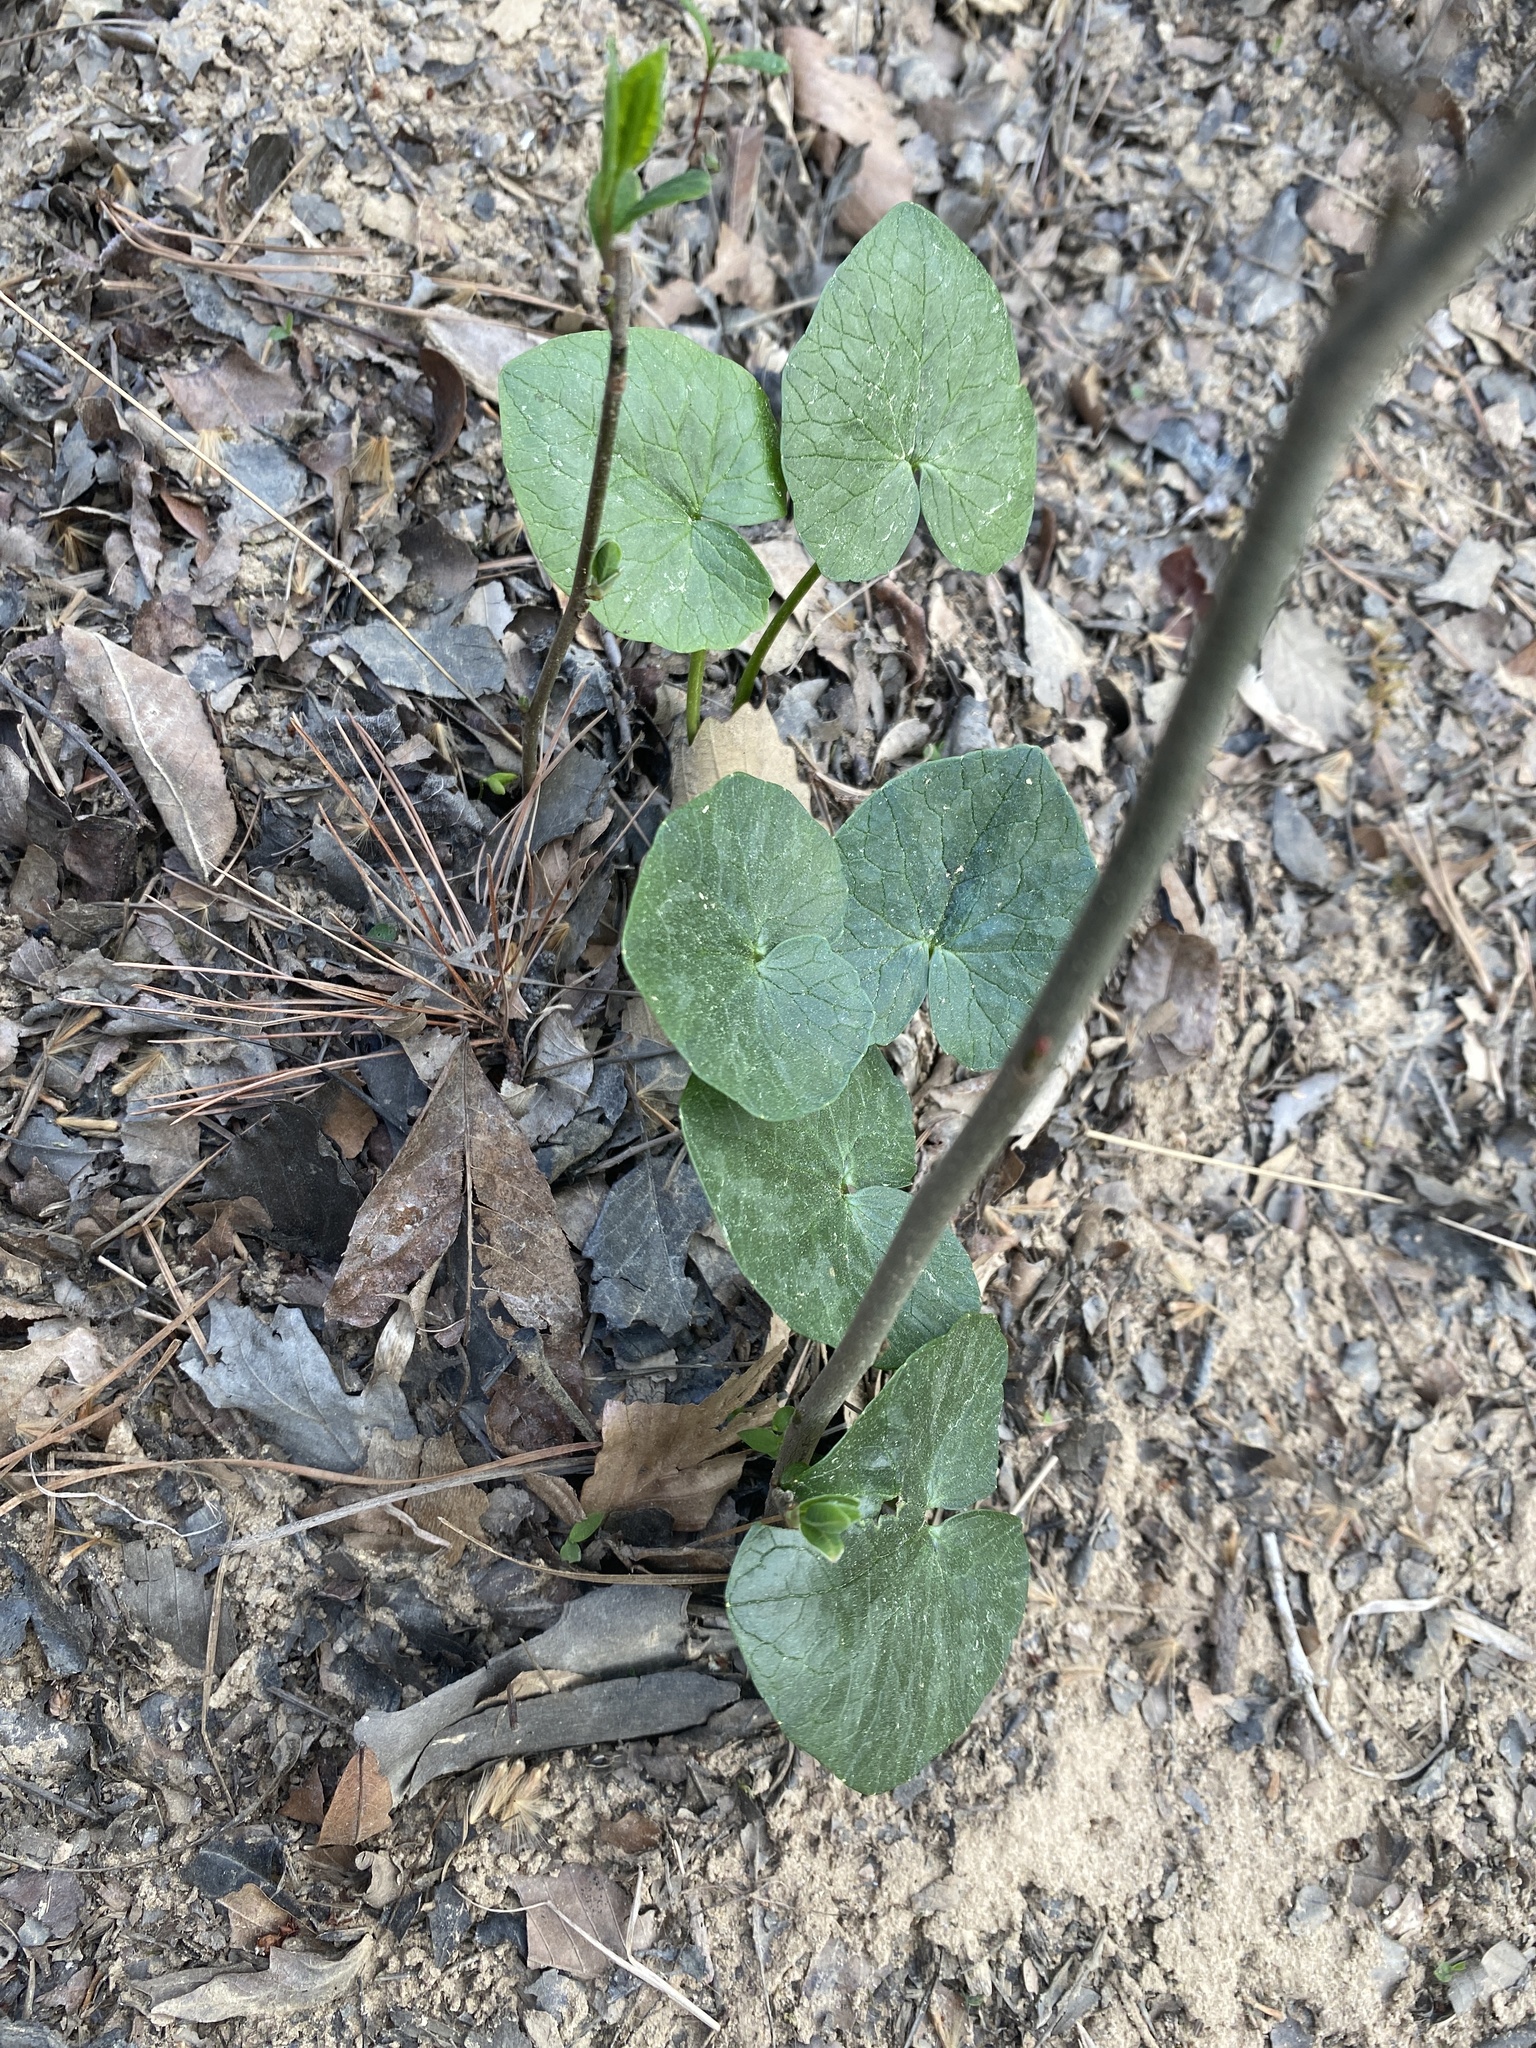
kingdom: Plantae
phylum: Tracheophyta
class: Magnoliopsida
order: Ranunculales
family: Ranunculaceae
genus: Ficaria
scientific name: Ficaria verna
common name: Lesser celandine
